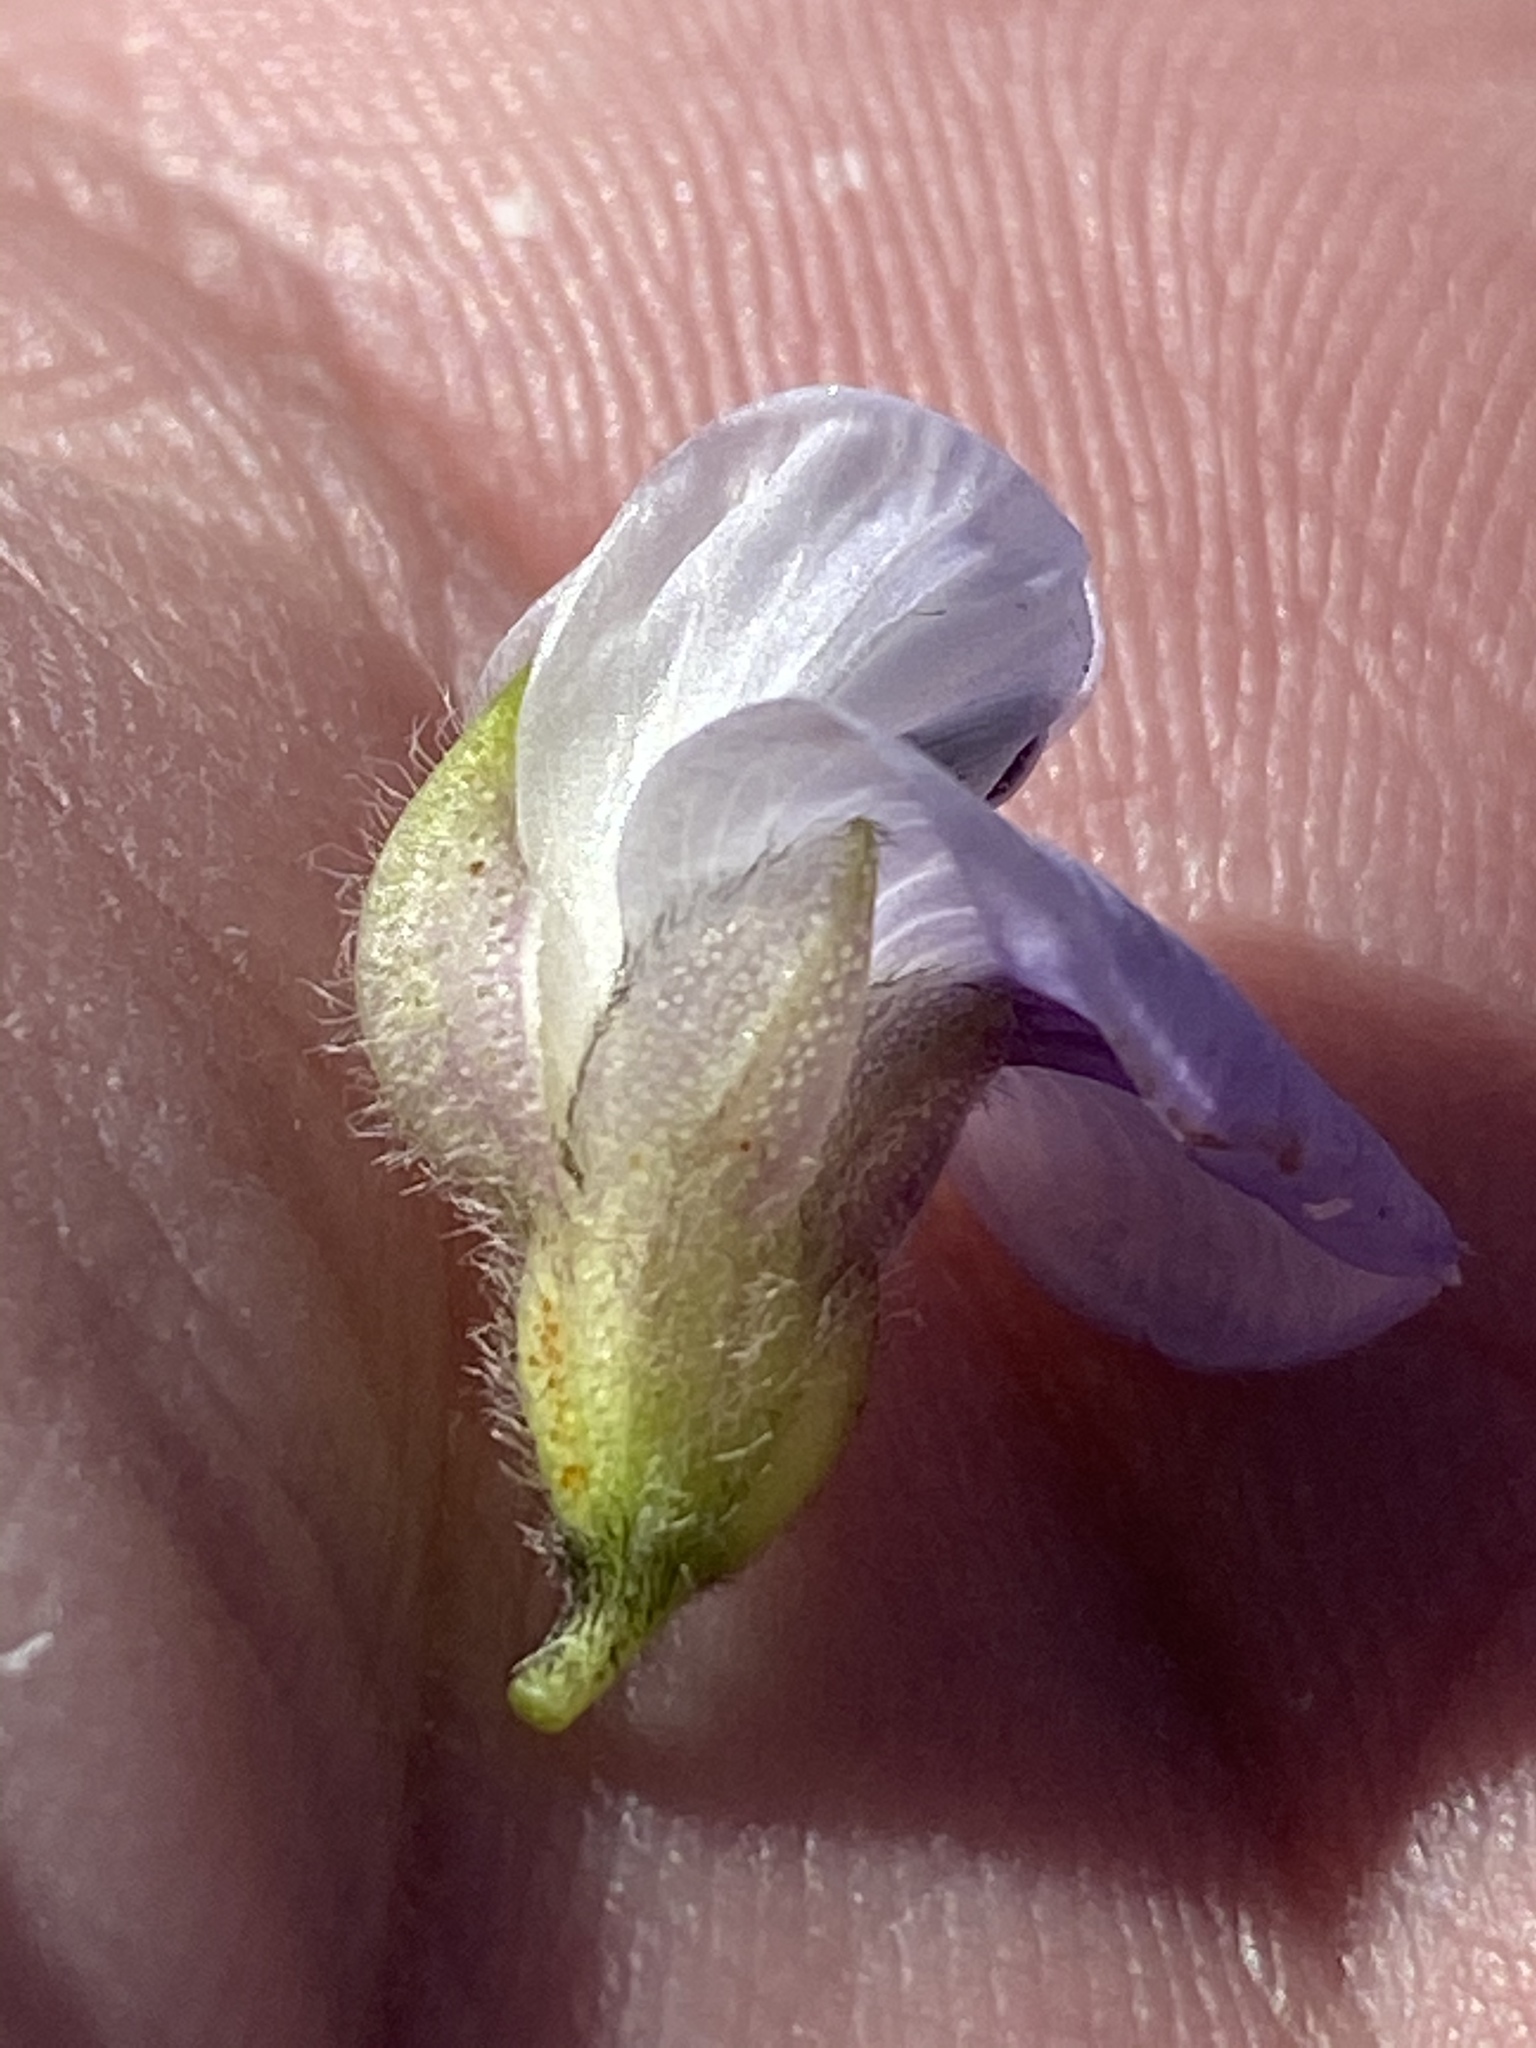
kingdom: Plantae
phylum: Tracheophyta
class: Magnoliopsida
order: Fabales
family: Fabaceae
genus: Psoralea
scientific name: Psoralea speciosa
